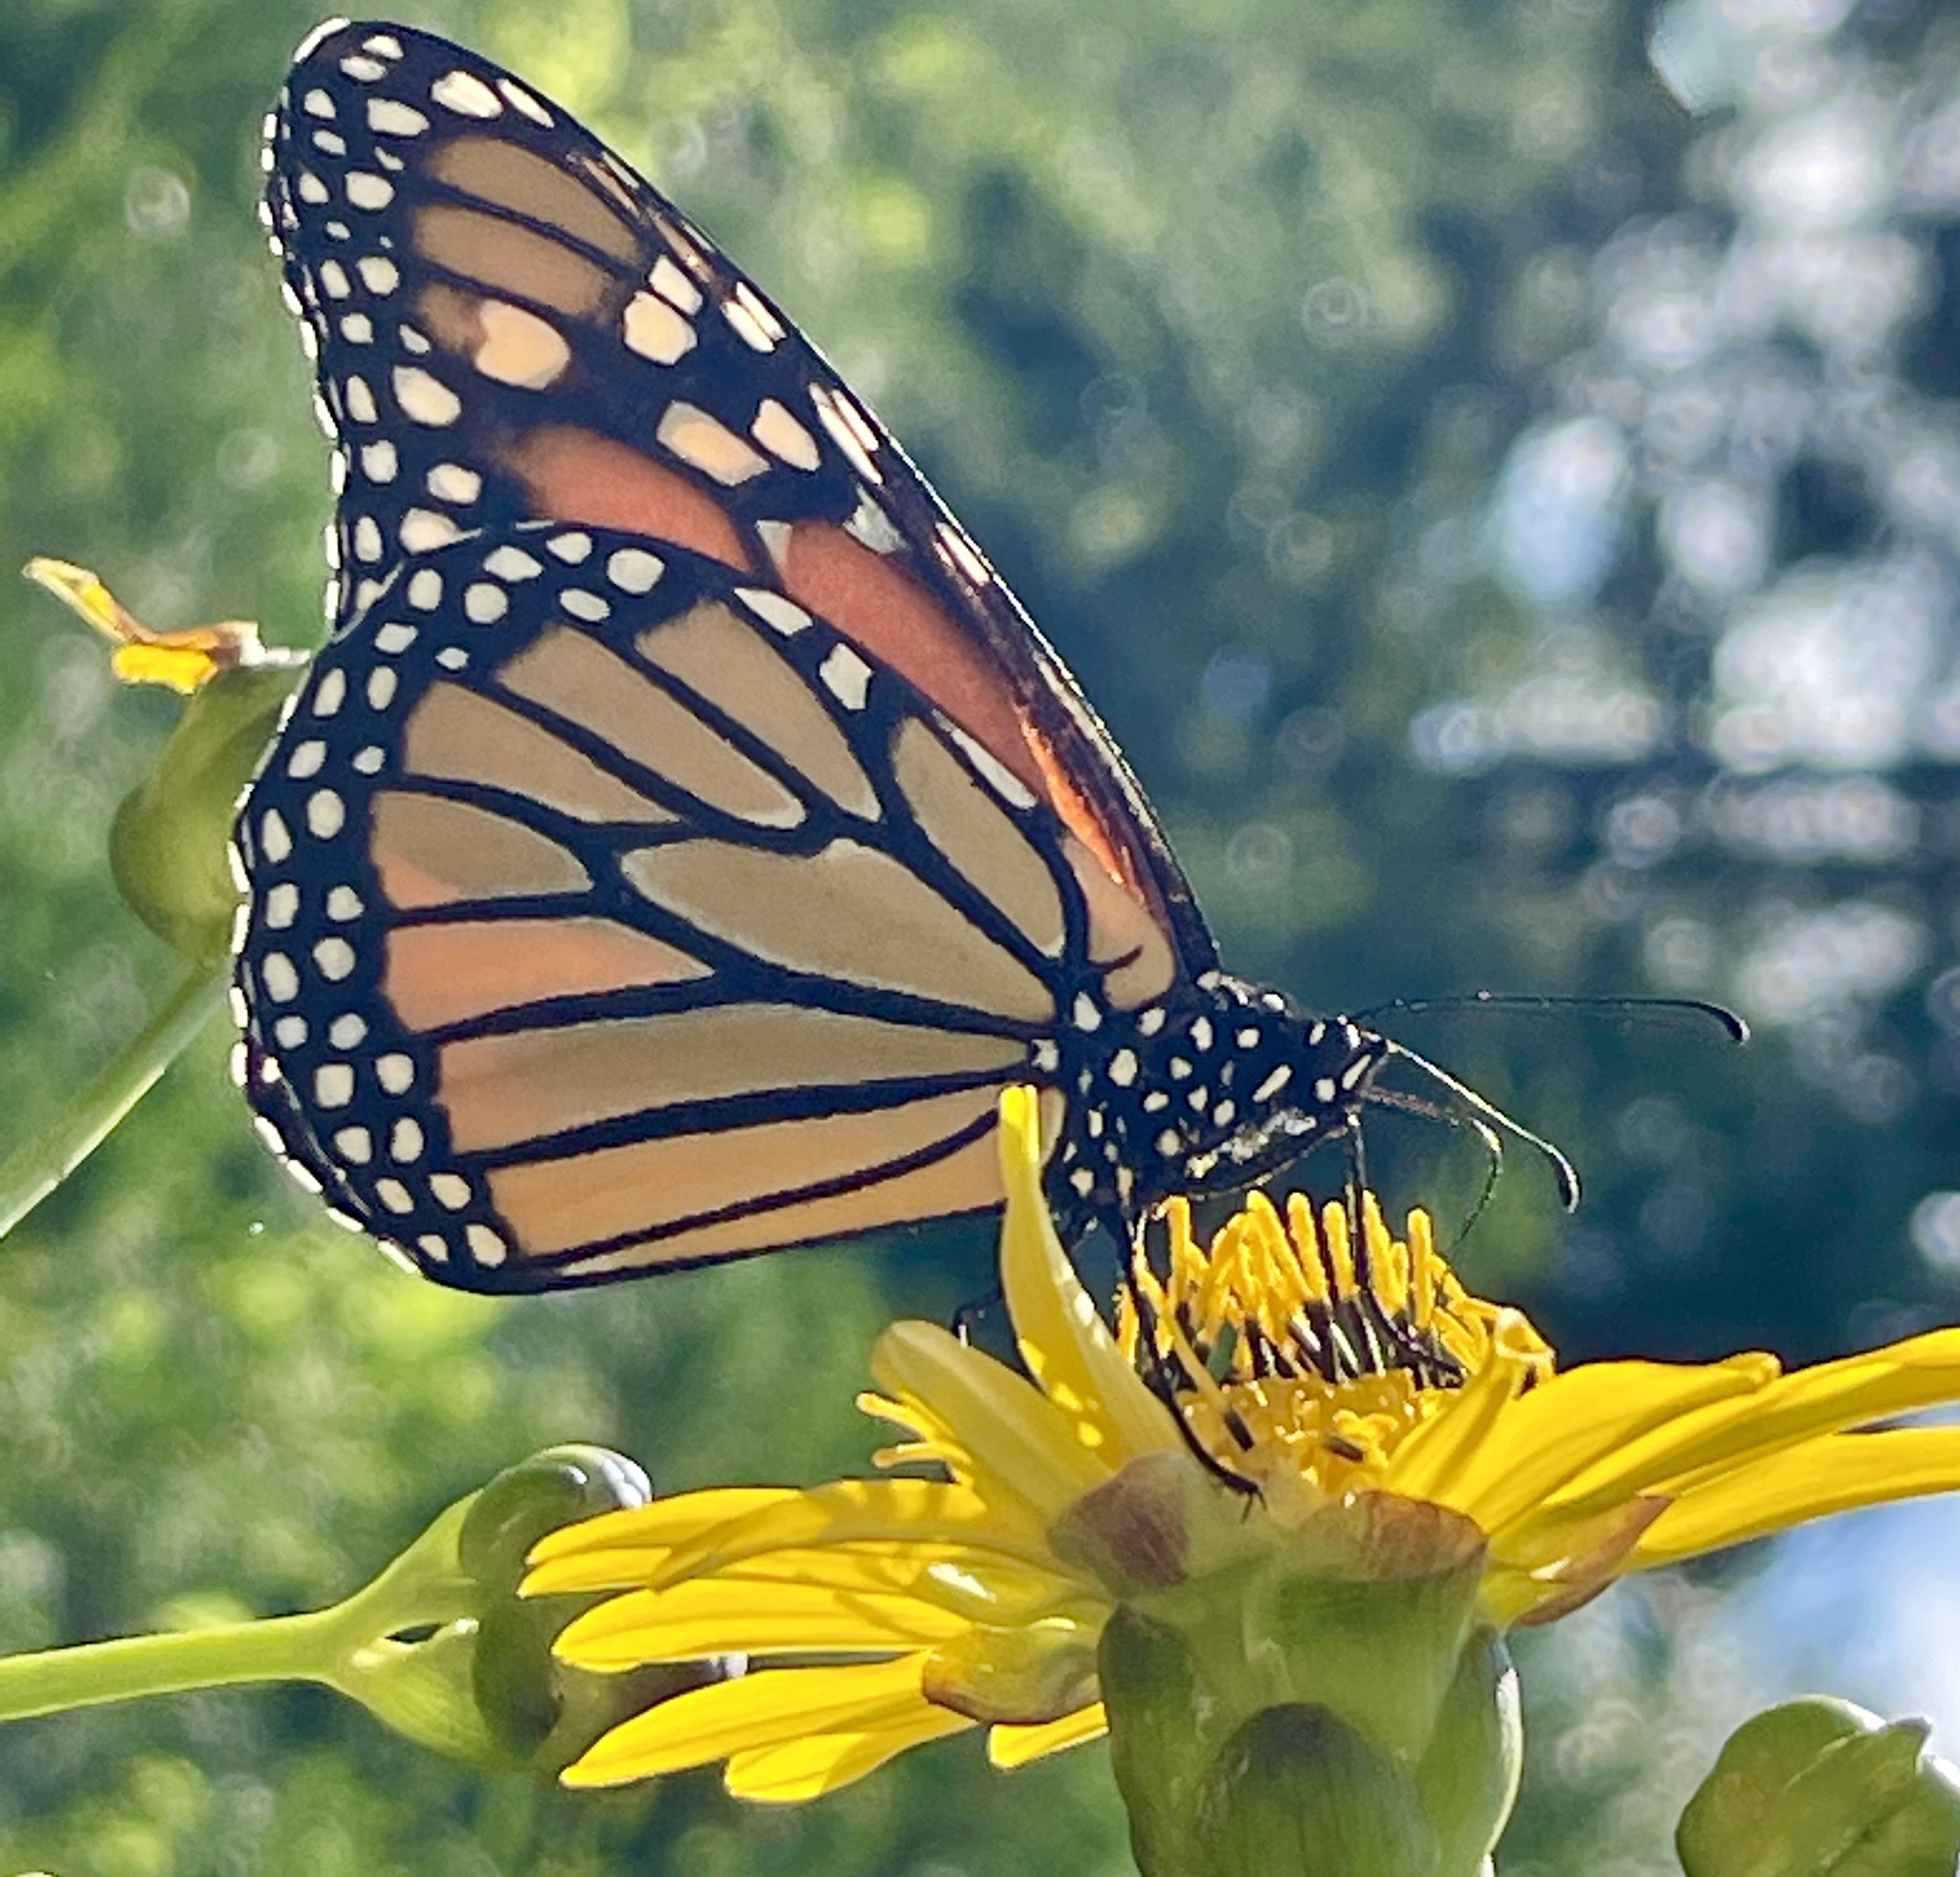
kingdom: Animalia
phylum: Arthropoda
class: Insecta
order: Lepidoptera
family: Nymphalidae
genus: Danaus
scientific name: Danaus plexippus
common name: Monarch
